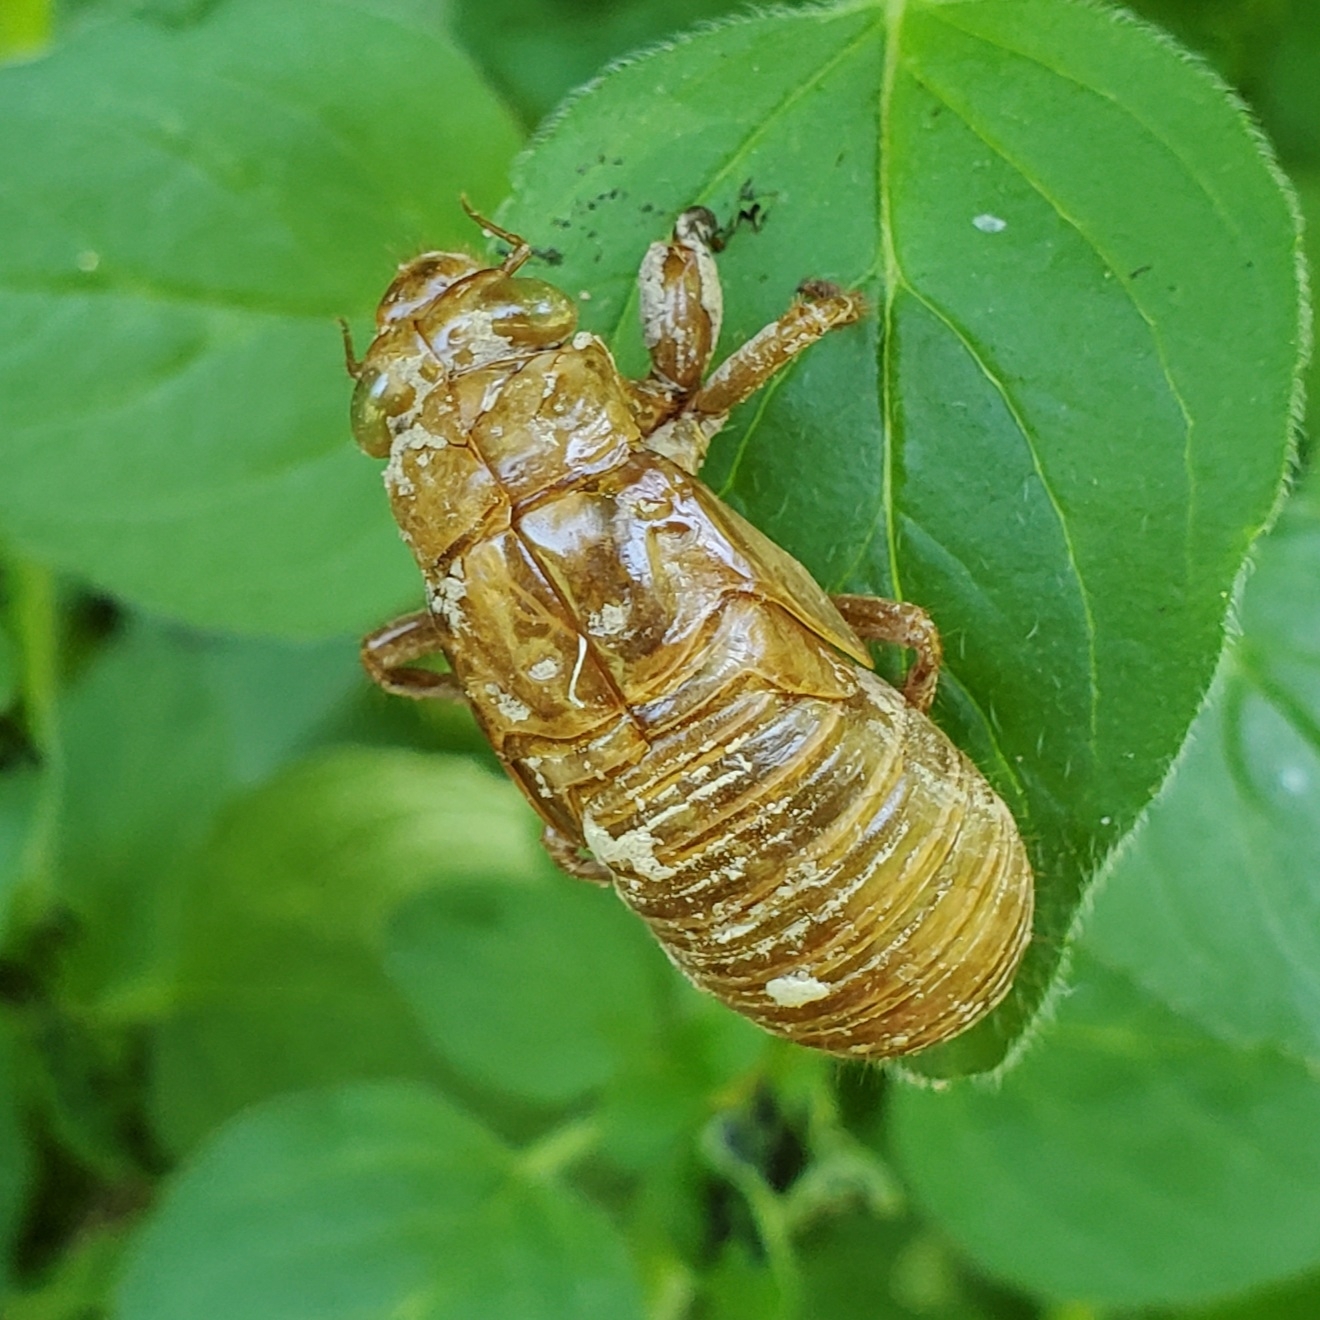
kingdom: Animalia
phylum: Arthropoda
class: Insecta
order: Hemiptera
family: Cicadidae
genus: Magicicada
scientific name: Magicicada
